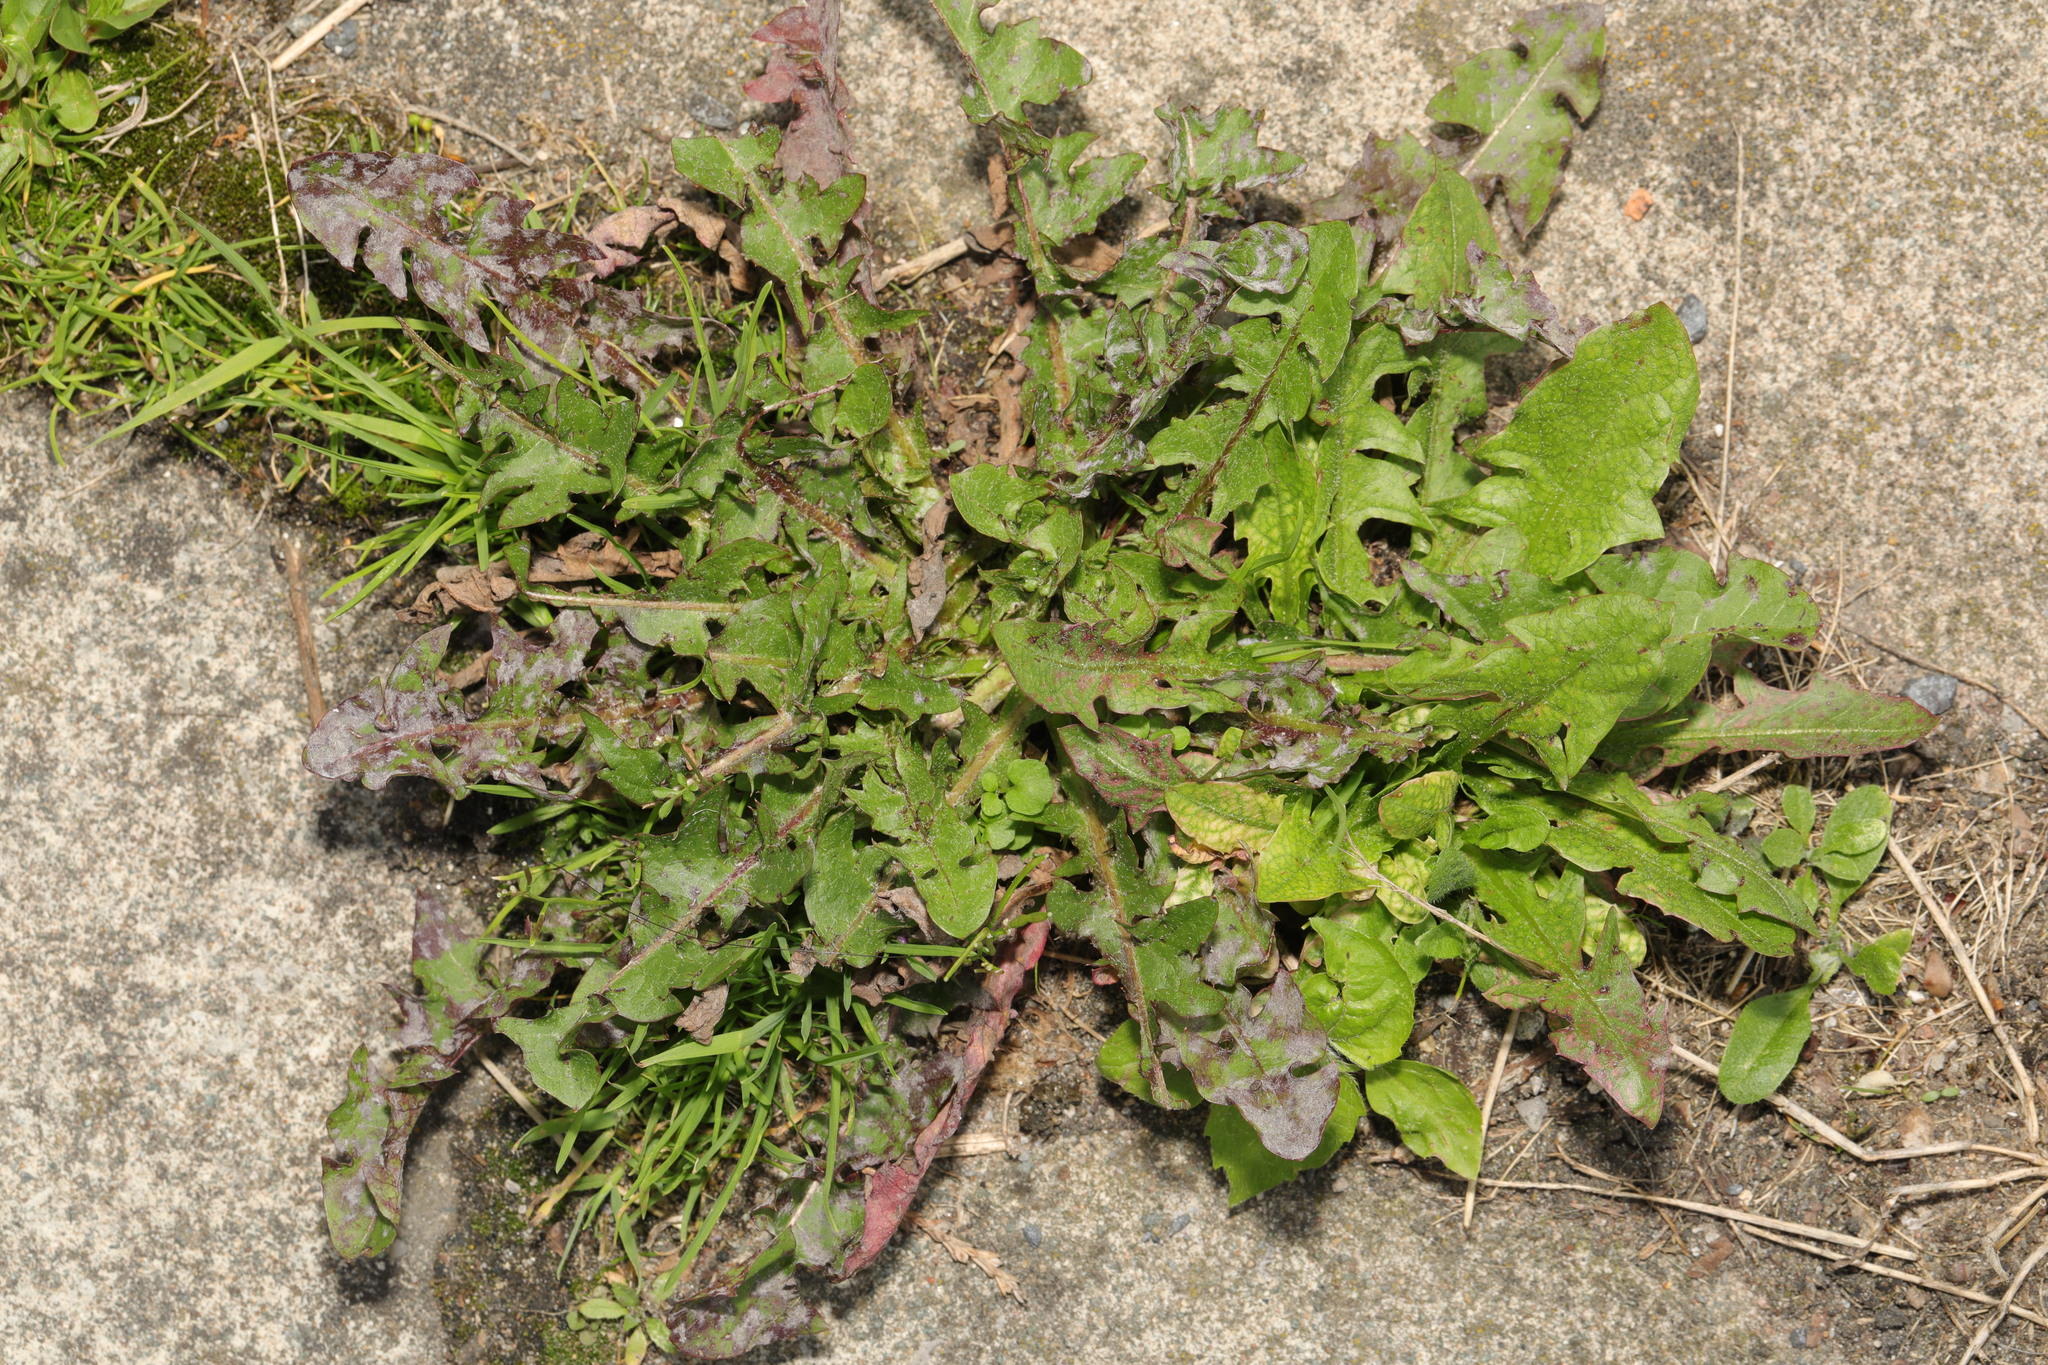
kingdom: Plantae
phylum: Tracheophyta
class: Magnoliopsida
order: Asterales
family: Asteraceae
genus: Taraxacum
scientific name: Taraxacum officinale
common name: Common dandelion
